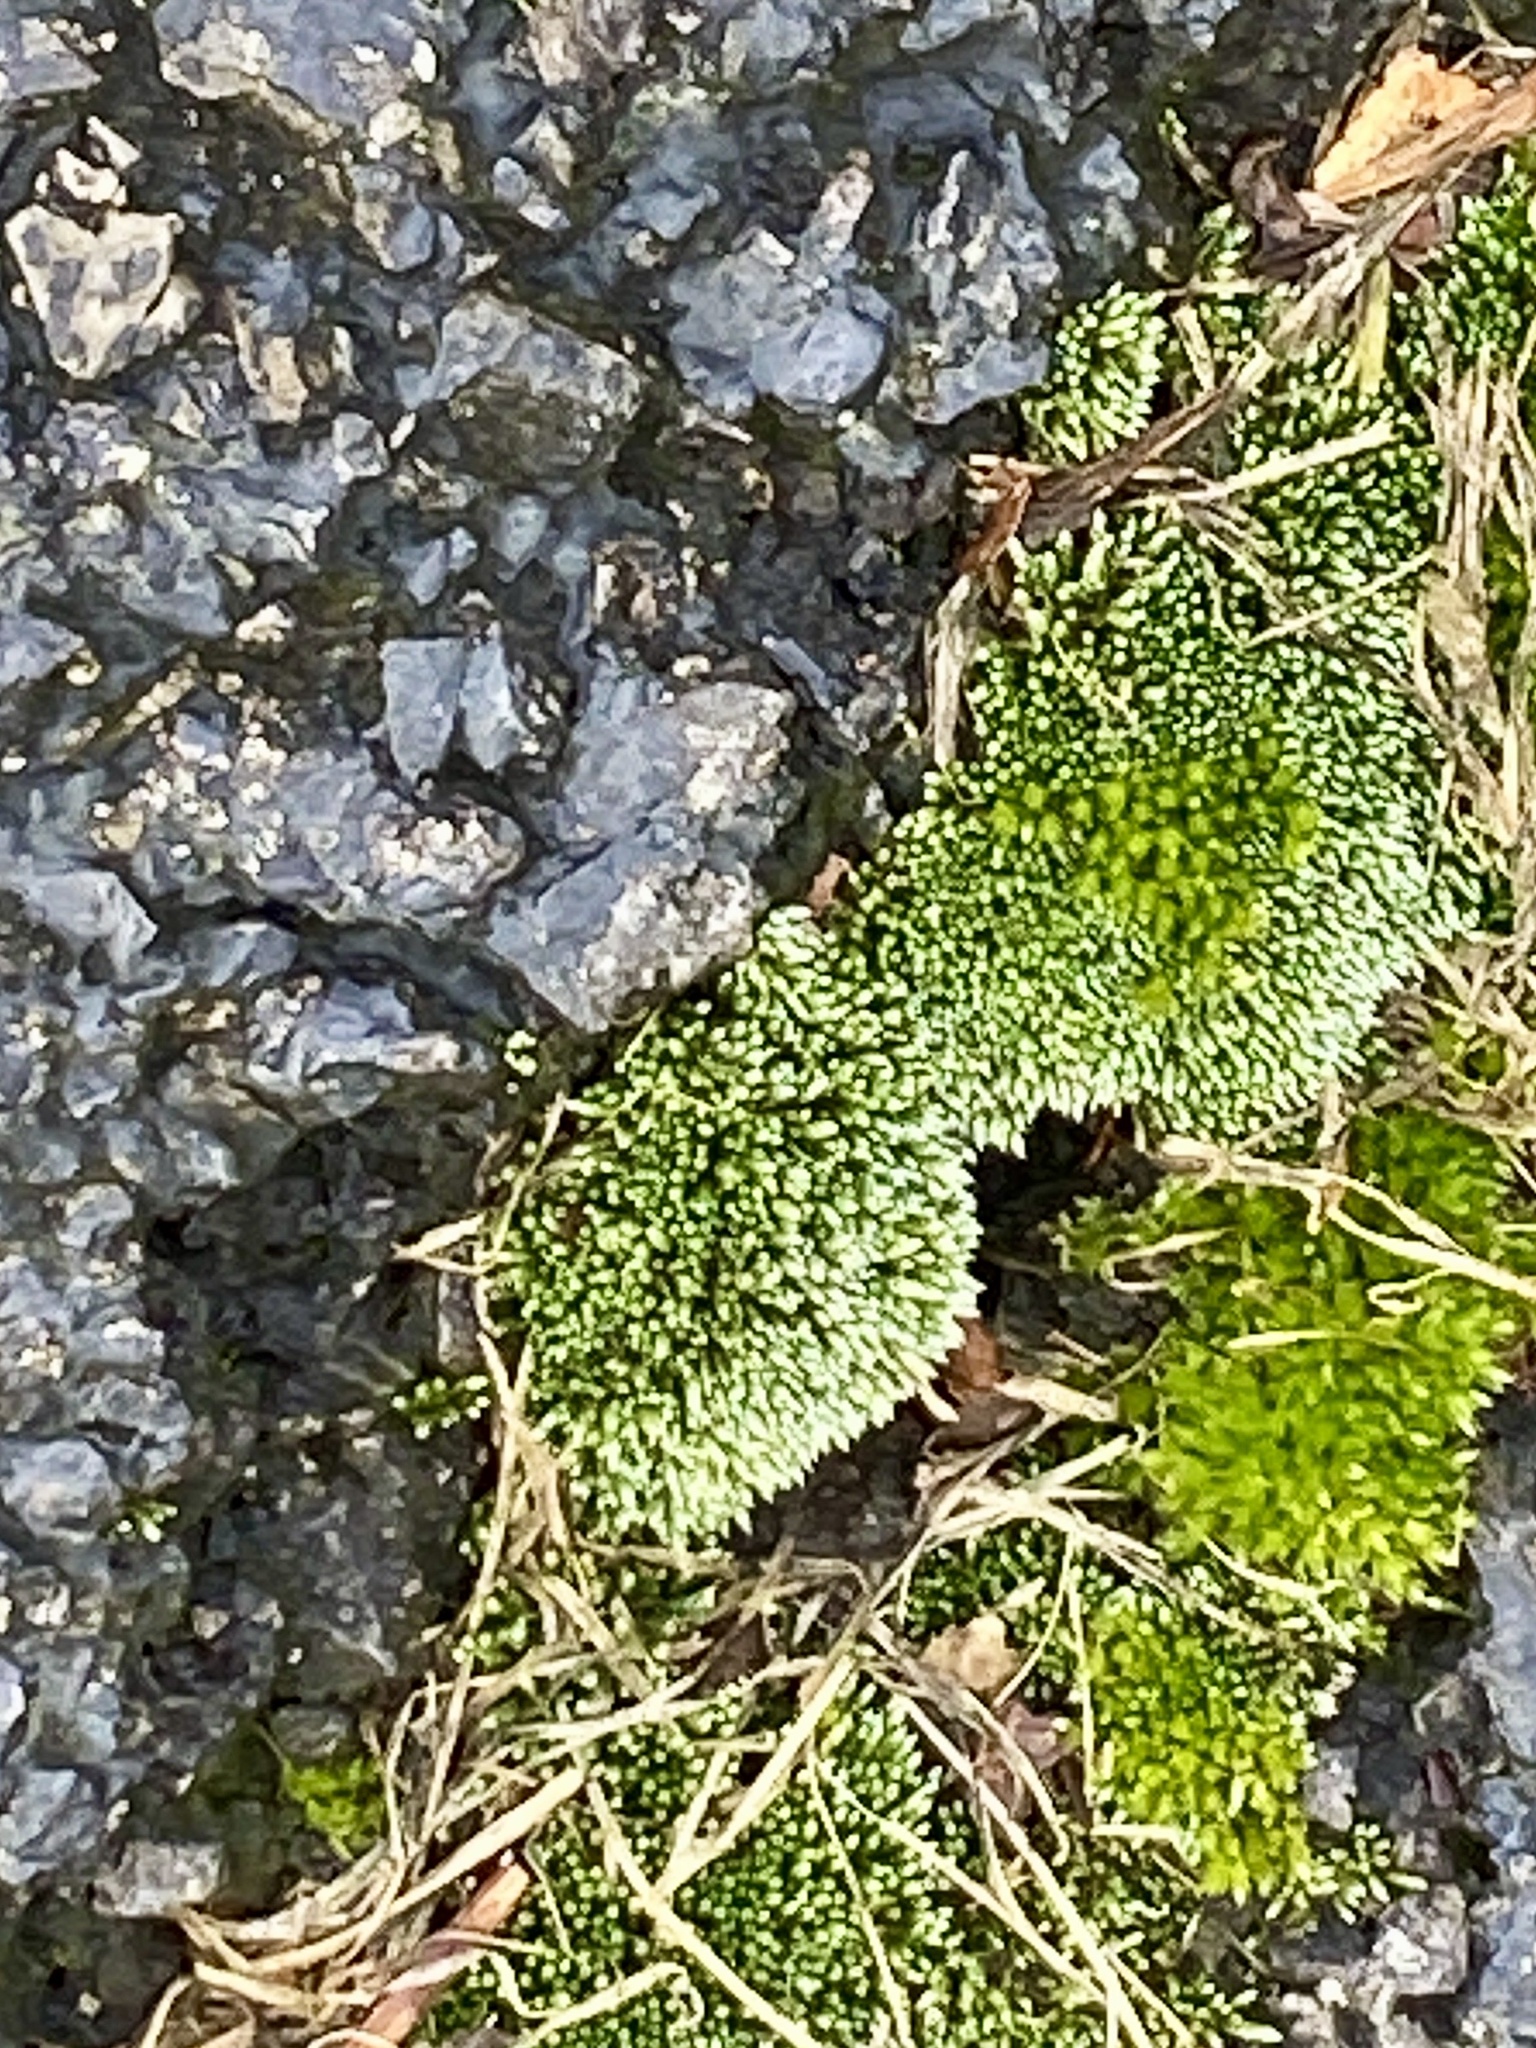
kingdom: Plantae
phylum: Bryophyta
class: Bryopsida
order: Bryales
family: Bryaceae
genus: Bryum
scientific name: Bryum argenteum
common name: Silver-moss
